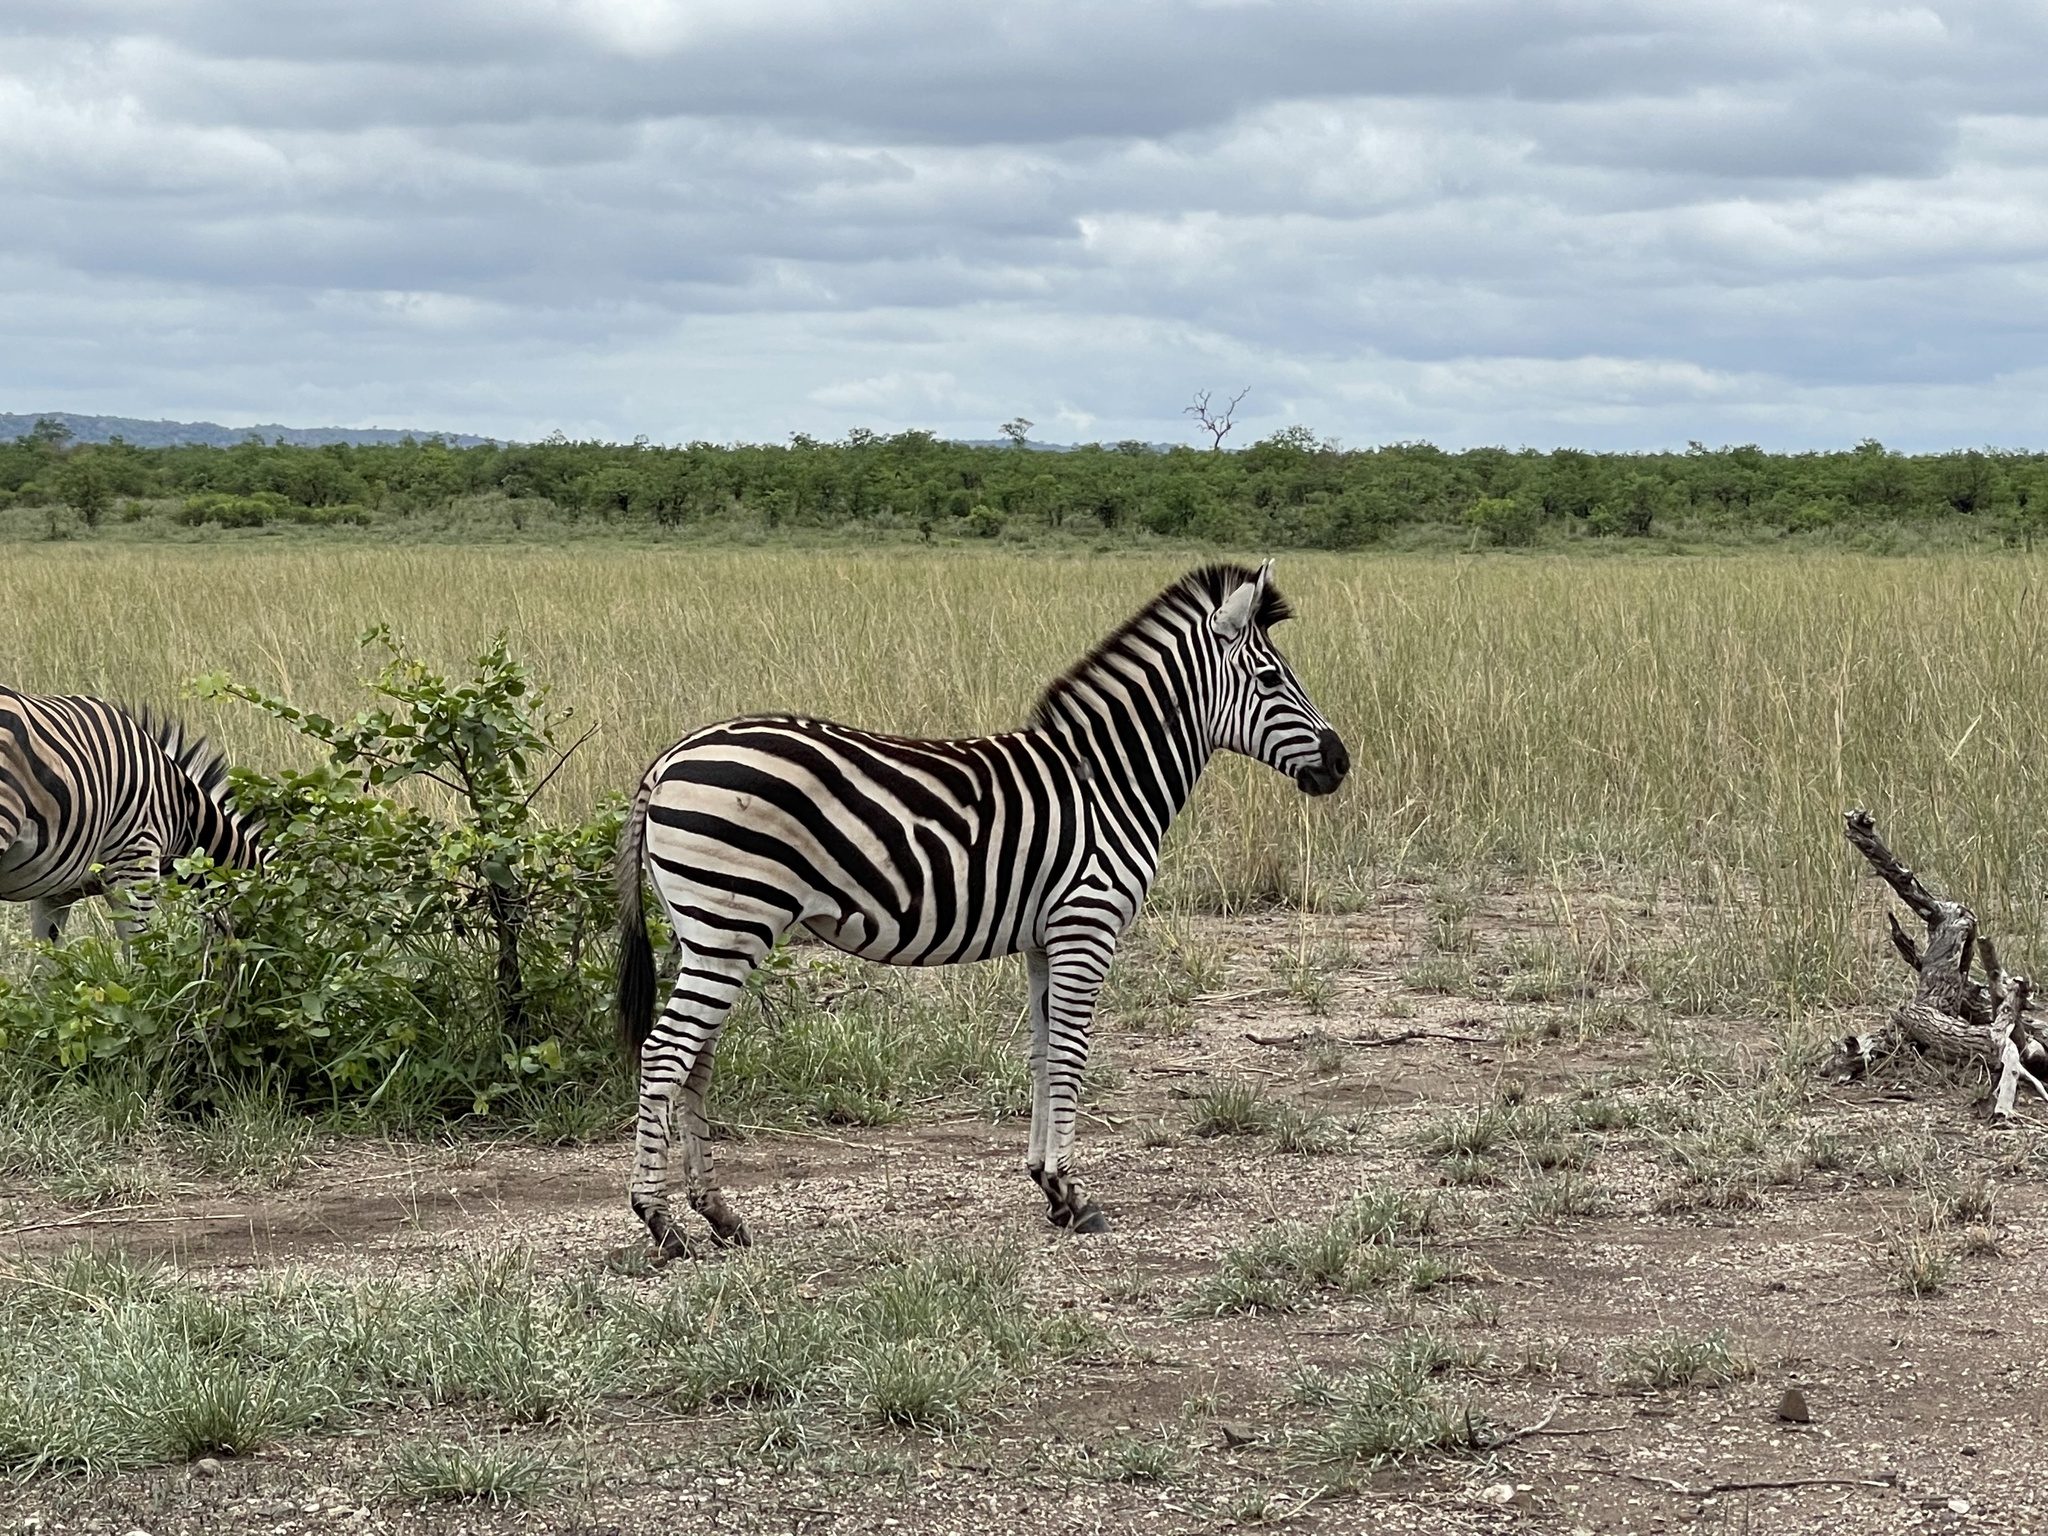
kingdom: Animalia
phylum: Chordata
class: Mammalia
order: Perissodactyla
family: Equidae
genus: Equus
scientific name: Equus quagga
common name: Plains zebra
